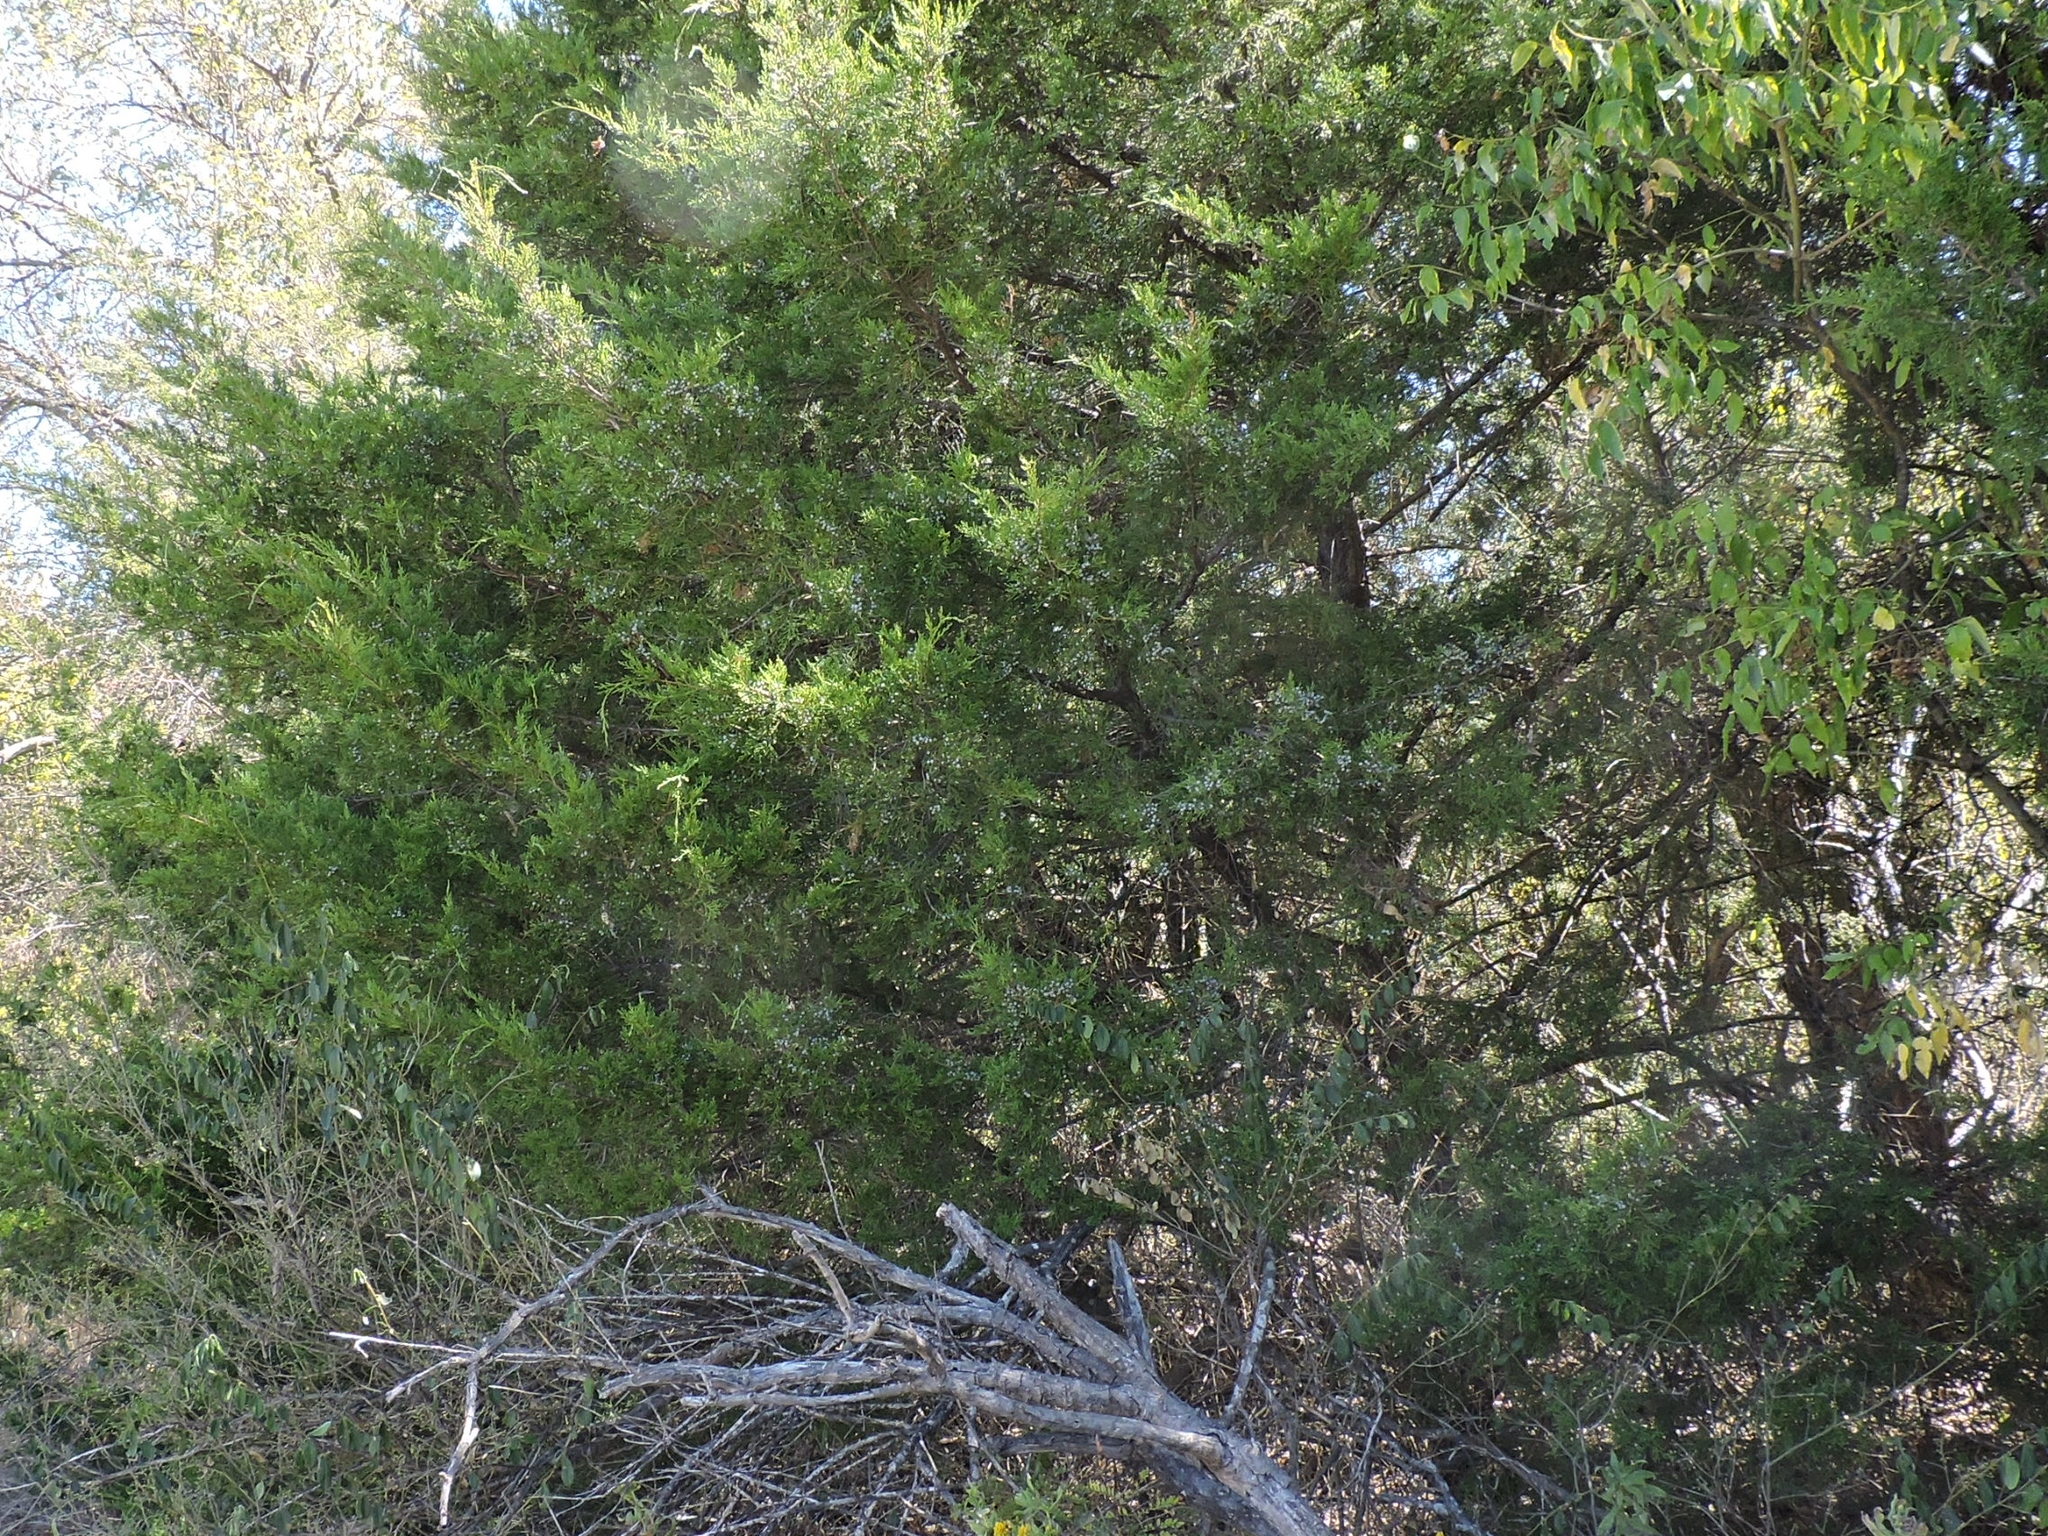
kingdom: Plantae
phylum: Tracheophyta
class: Pinopsida
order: Pinales
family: Cupressaceae
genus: Juniperus
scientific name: Juniperus virginiana
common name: Red juniper
